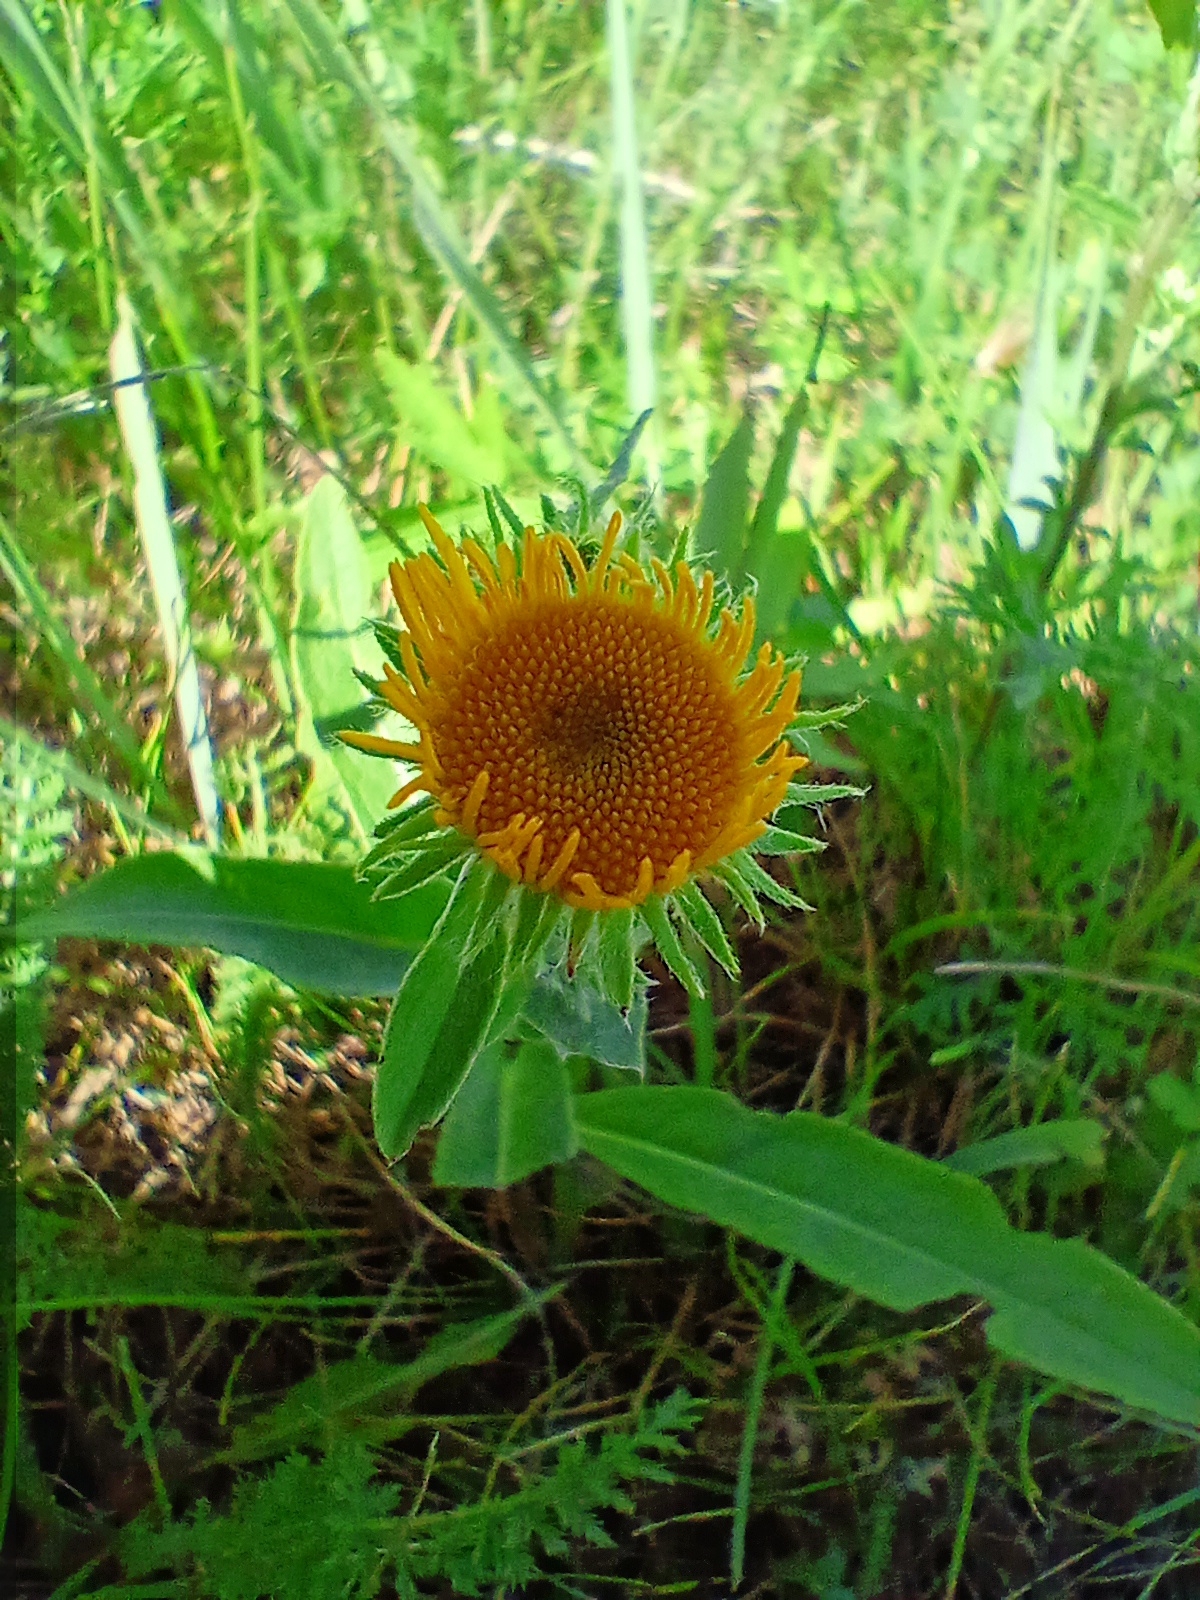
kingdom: Plantae
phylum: Tracheophyta
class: Magnoliopsida
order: Asterales
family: Asteraceae
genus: Pentanema
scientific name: Pentanema britannicum
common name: British elecampane
